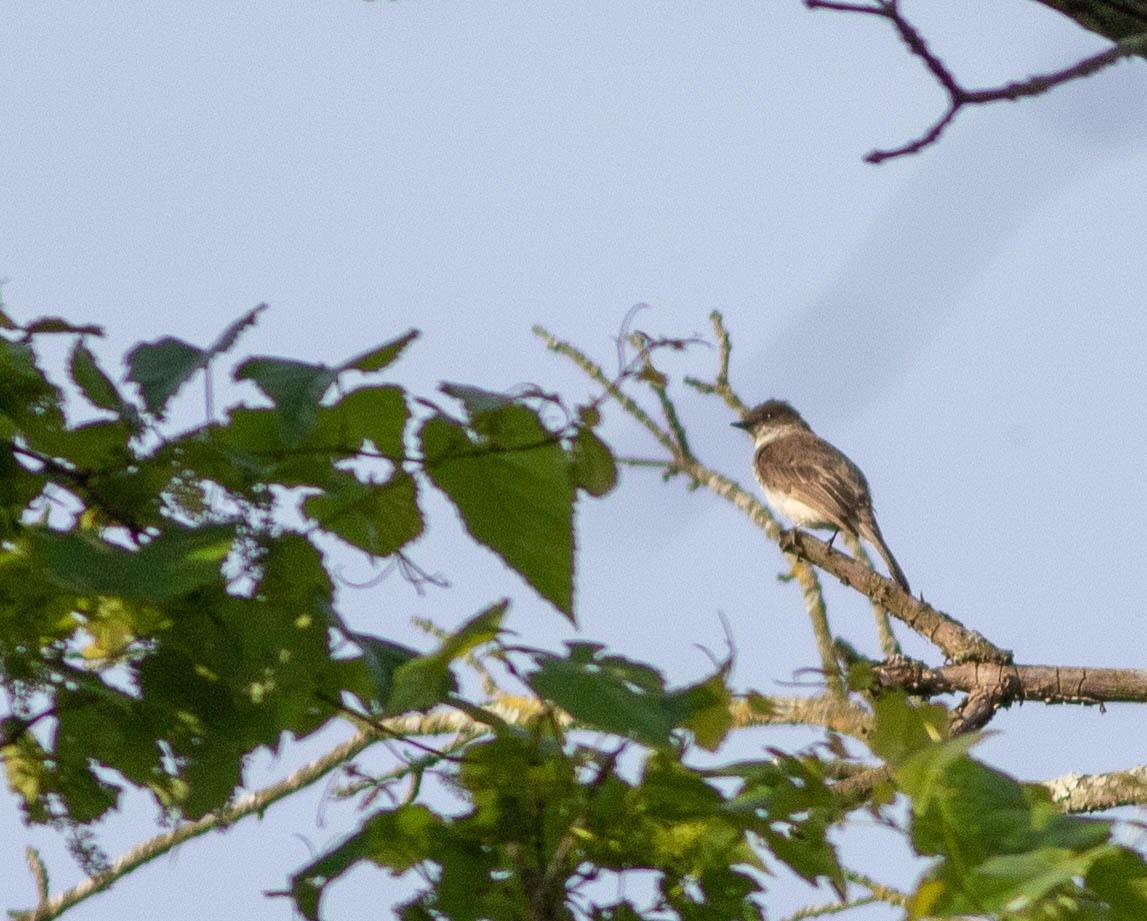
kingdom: Animalia
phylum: Chordata
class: Aves
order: Passeriformes
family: Tyrannidae
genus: Sayornis
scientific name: Sayornis phoebe
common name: Eastern phoebe
